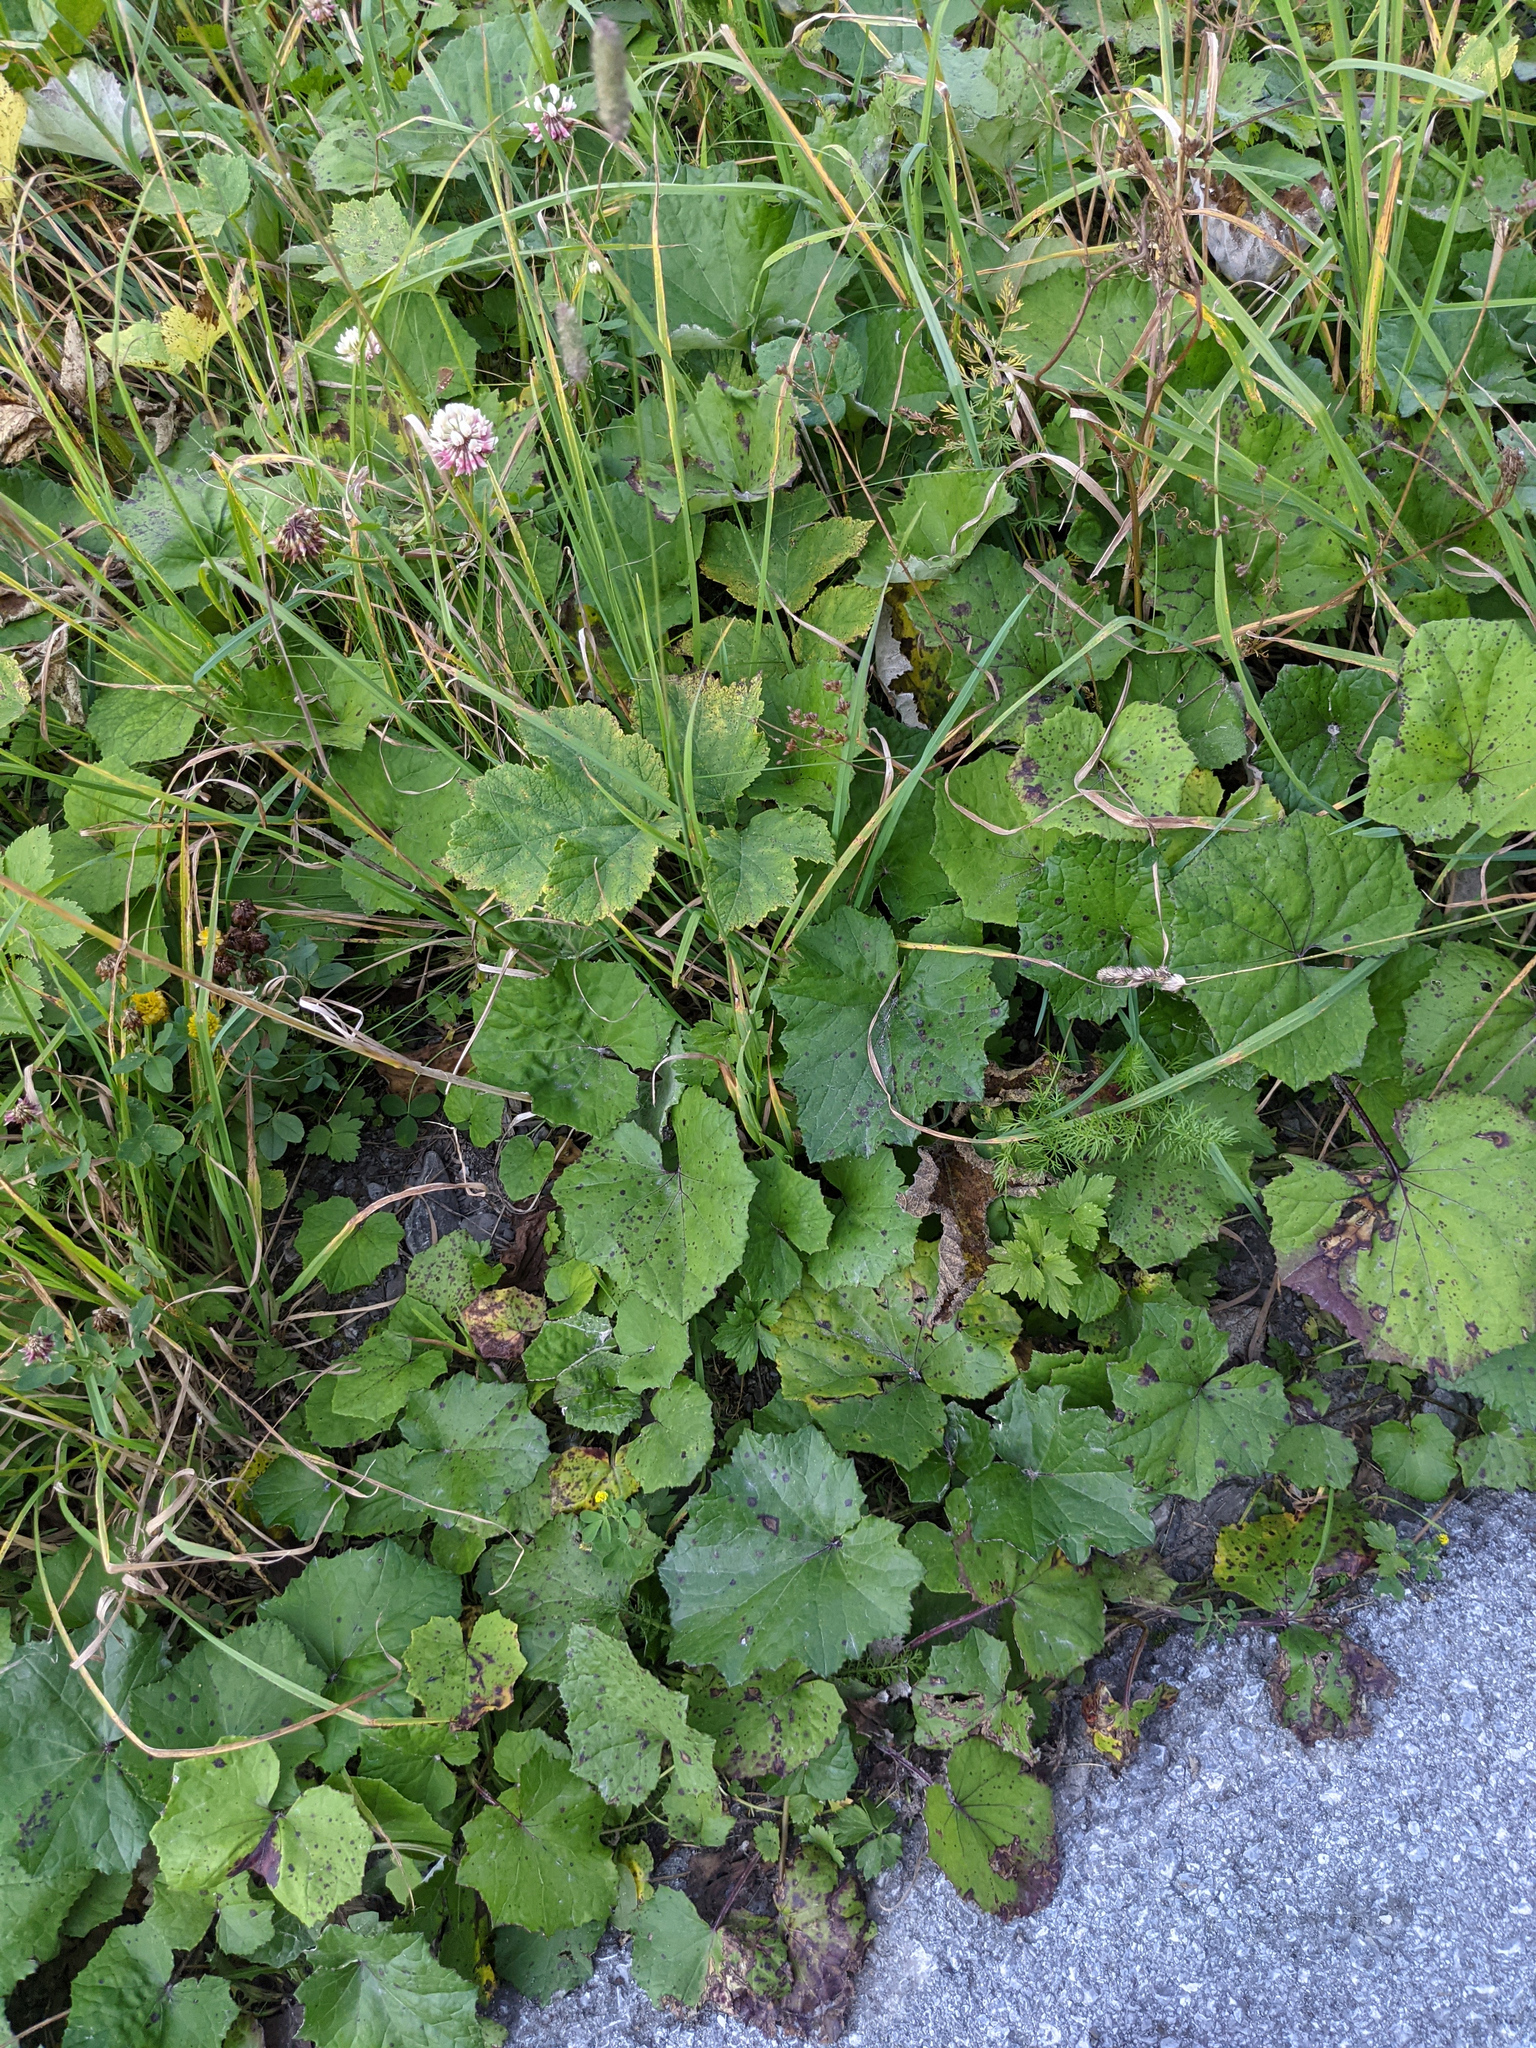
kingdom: Plantae
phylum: Tracheophyta
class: Magnoliopsida
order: Asterales
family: Asteraceae
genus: Tussilago
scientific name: Tussilago farfara
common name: Coltsfoot
